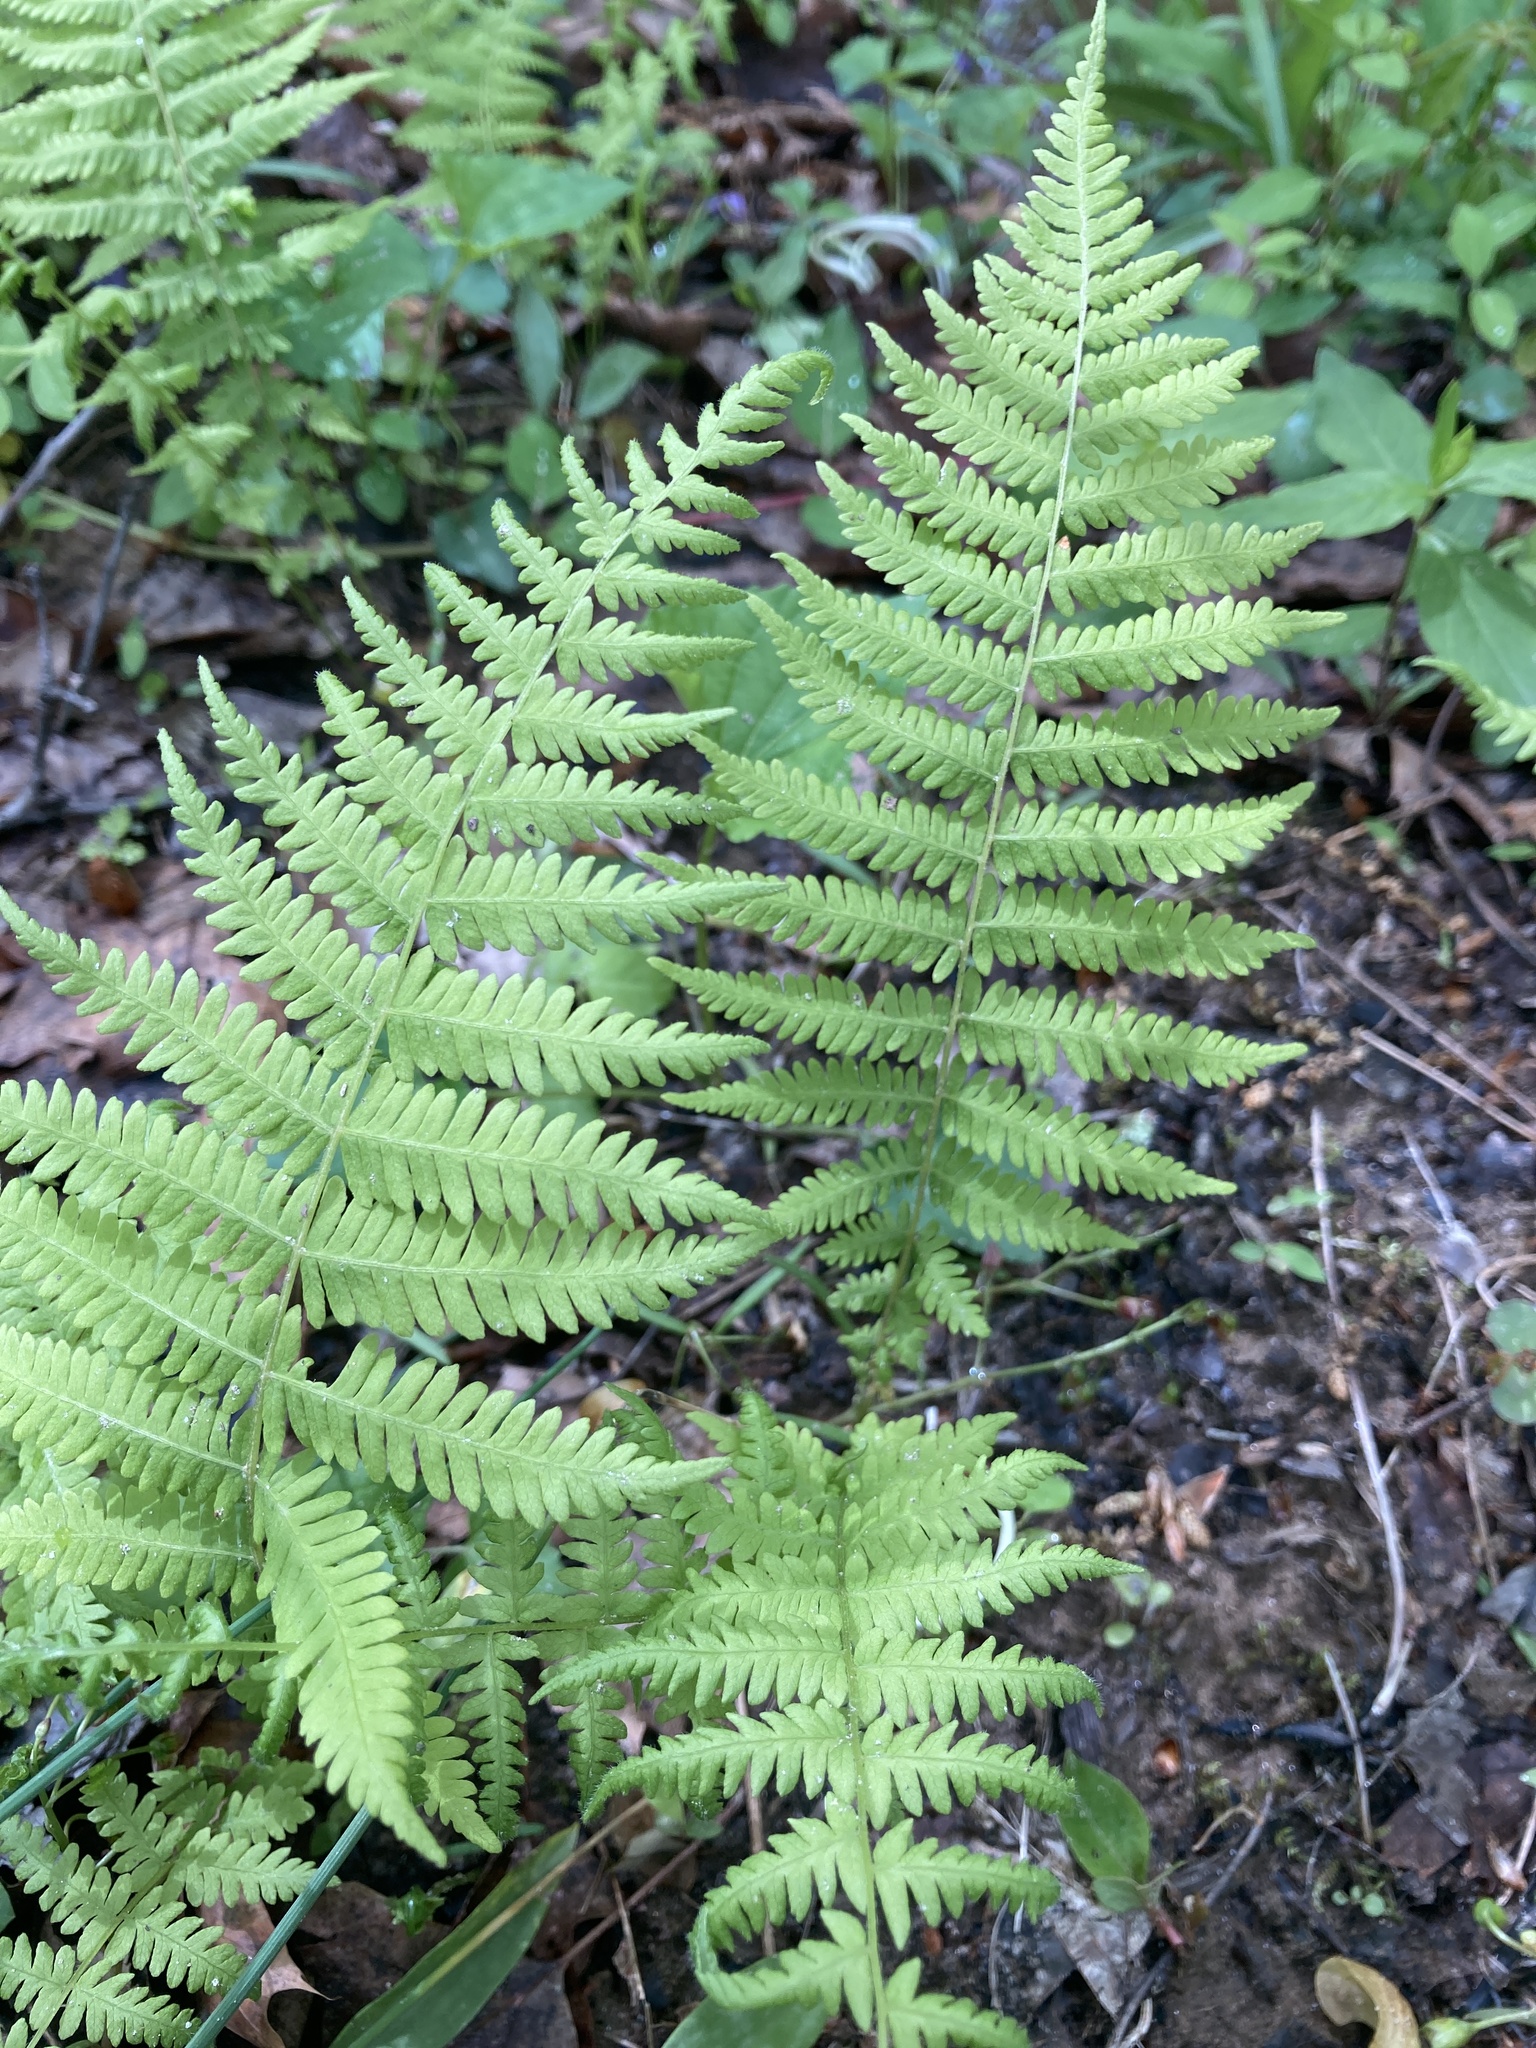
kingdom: Plantae
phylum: Tracheophyta
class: Polypodiopsida
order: Polypodiales
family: Thelypteridaceae
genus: Amauropelta
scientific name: Amauropelta noveboracensis
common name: New york fern
